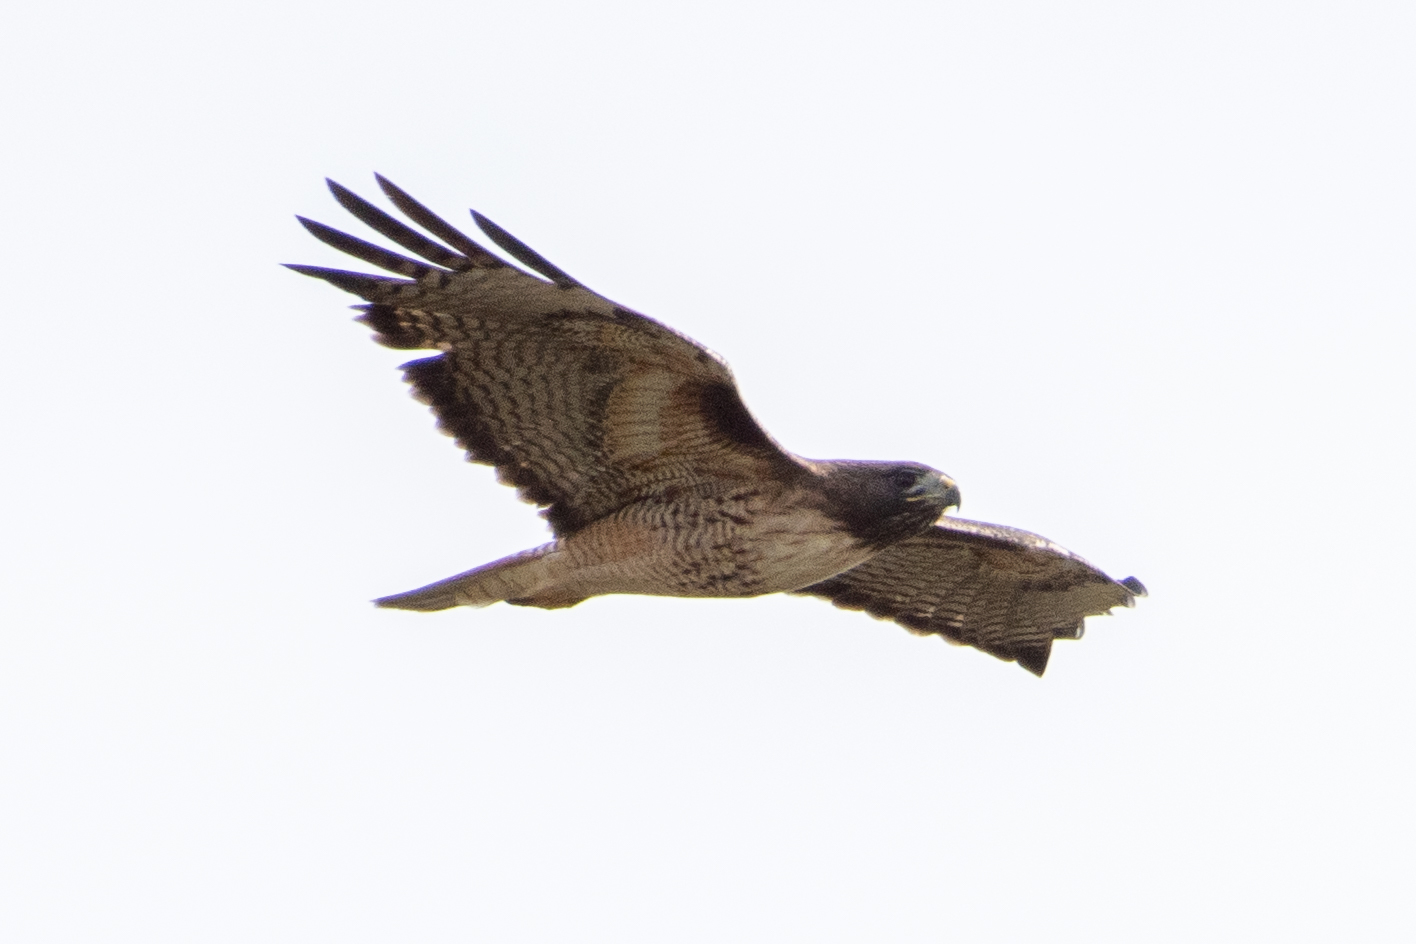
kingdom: Animalia
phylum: Chordata
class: Aves
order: Accipitriformes
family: Accipitridae
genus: Buteo
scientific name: Buteo jamaicensis
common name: Red-tailed hawk
